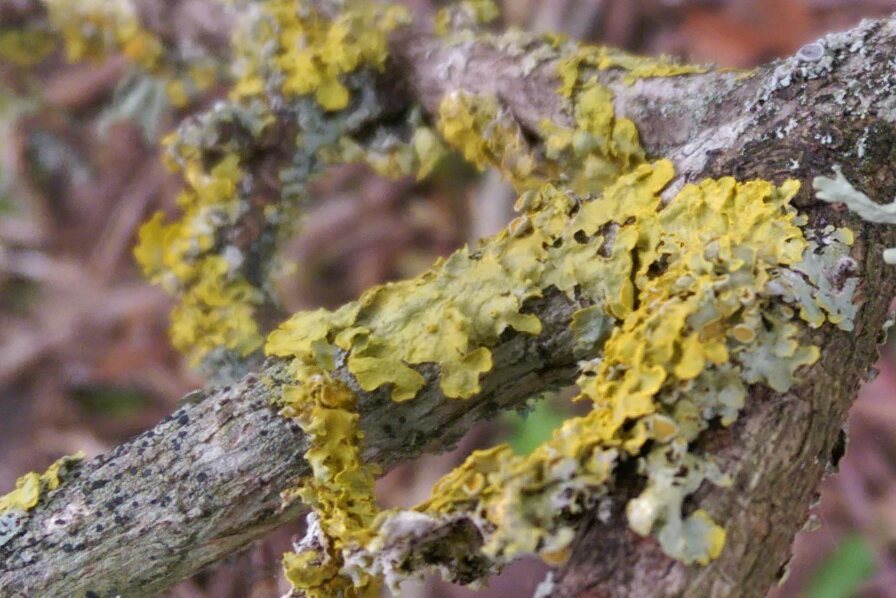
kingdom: Fungi
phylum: Ascomycota
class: Lecanoromycetes
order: Teloschistales
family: Teloschistaceae
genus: Xanthoria
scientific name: Xanthoria parietina
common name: Common orange lichen
